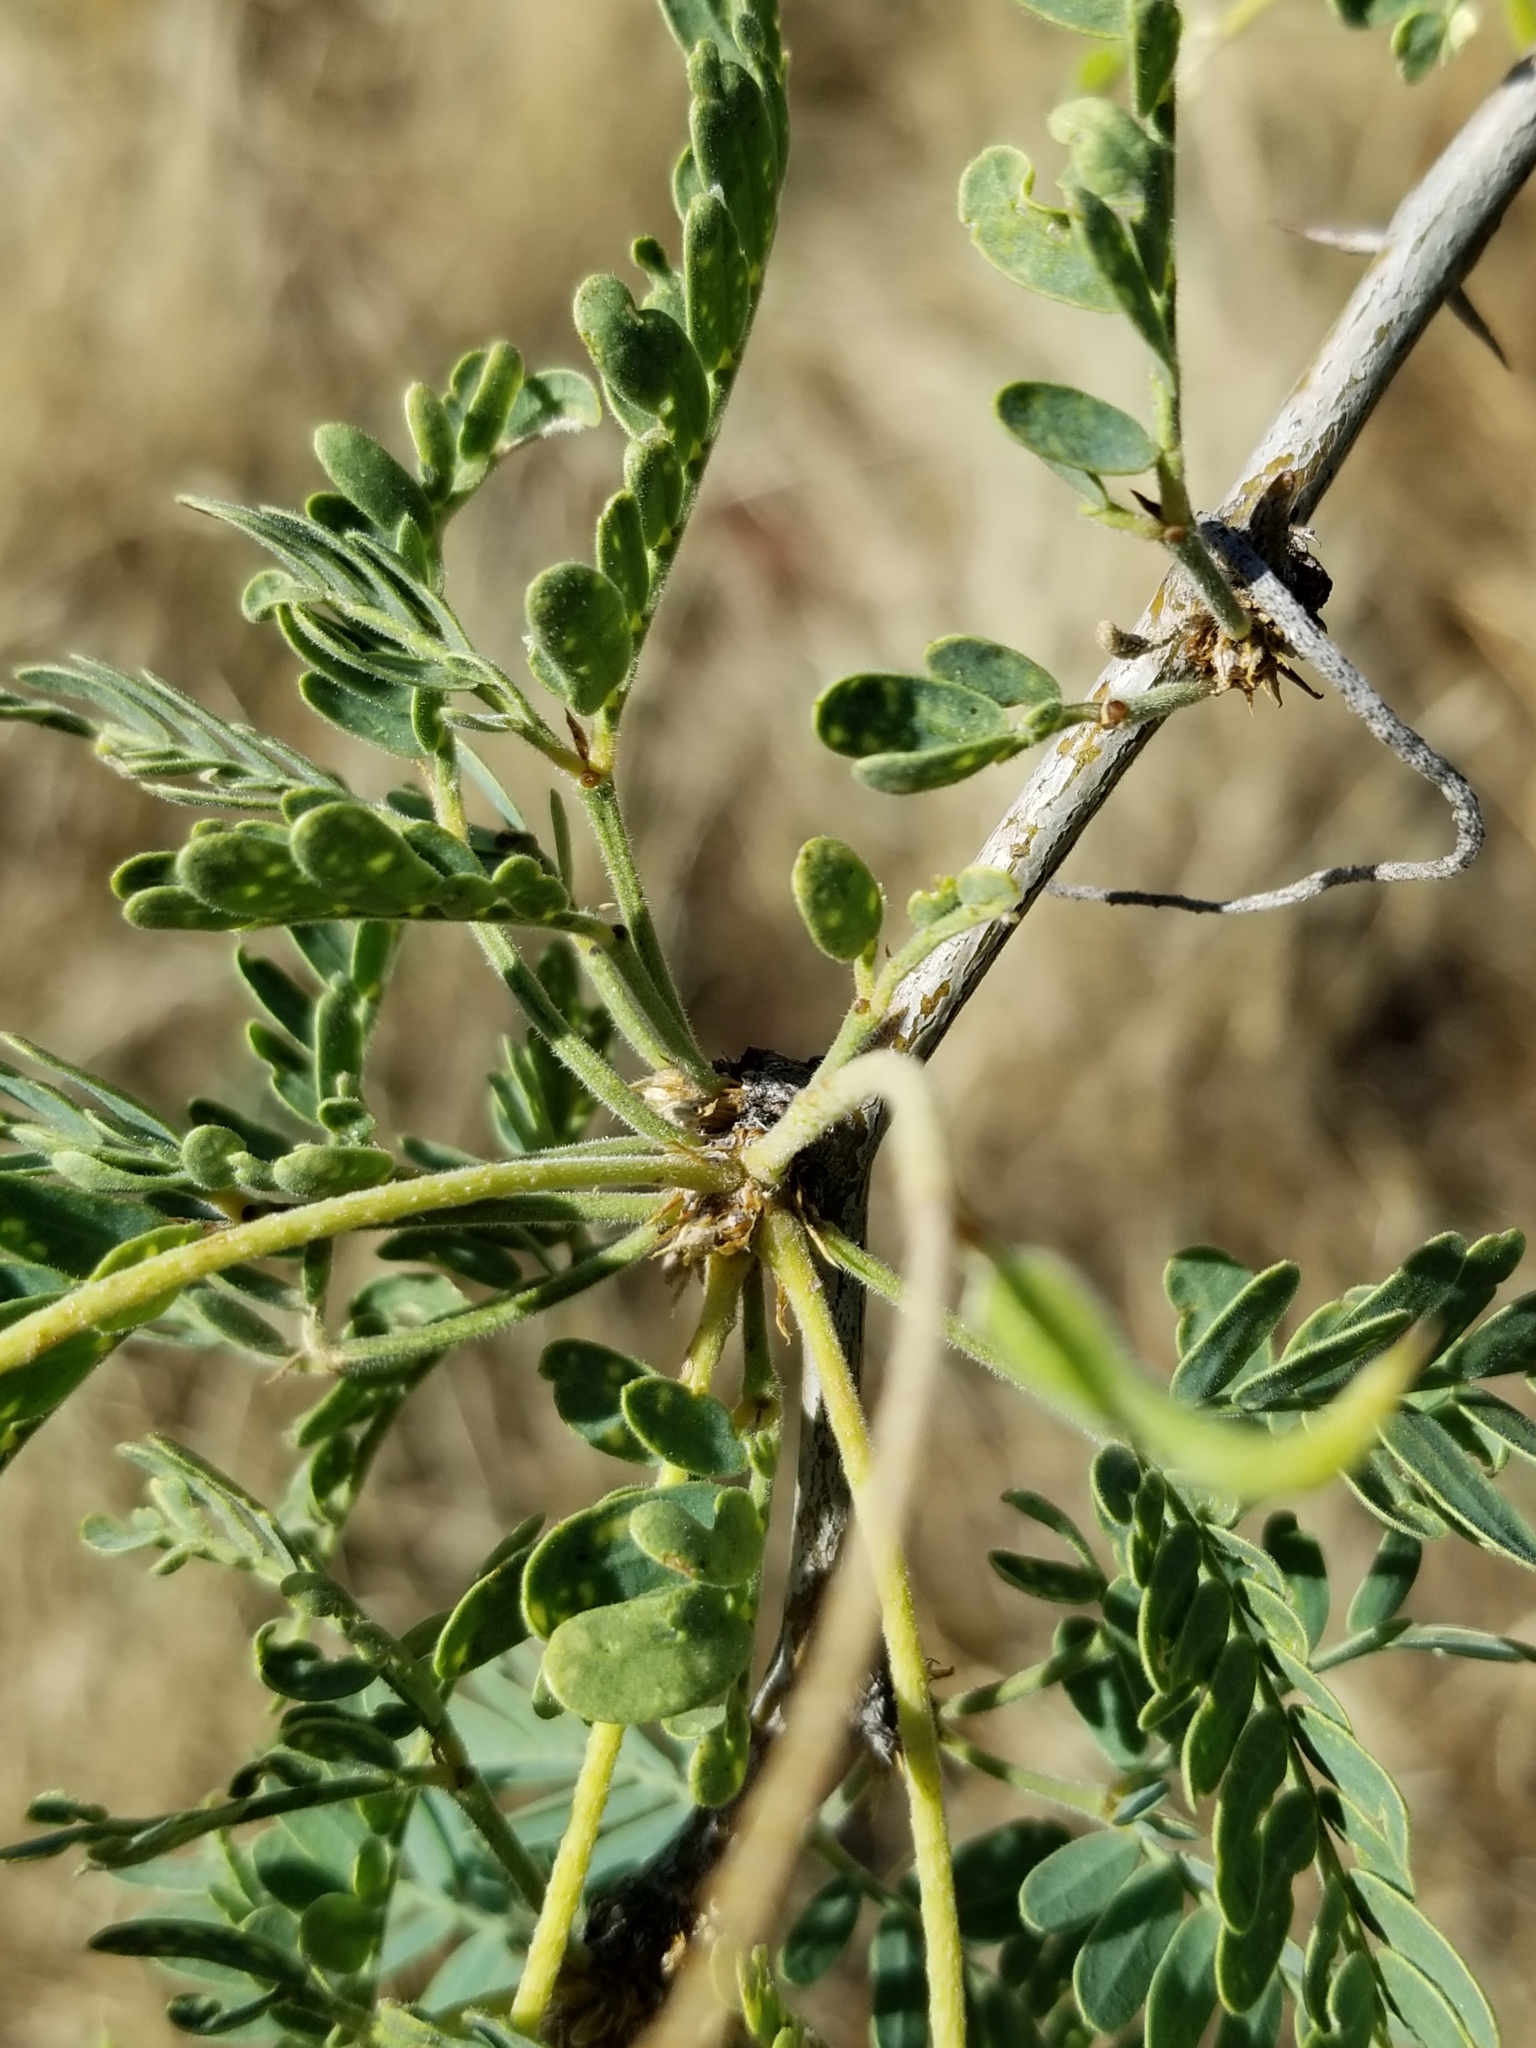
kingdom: Plantae
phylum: Tracheophyta
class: Magnoliopsida
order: Fabales
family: Fabaceae
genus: Prosopis
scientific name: Prosopis velutina
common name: Velvet mesquite
